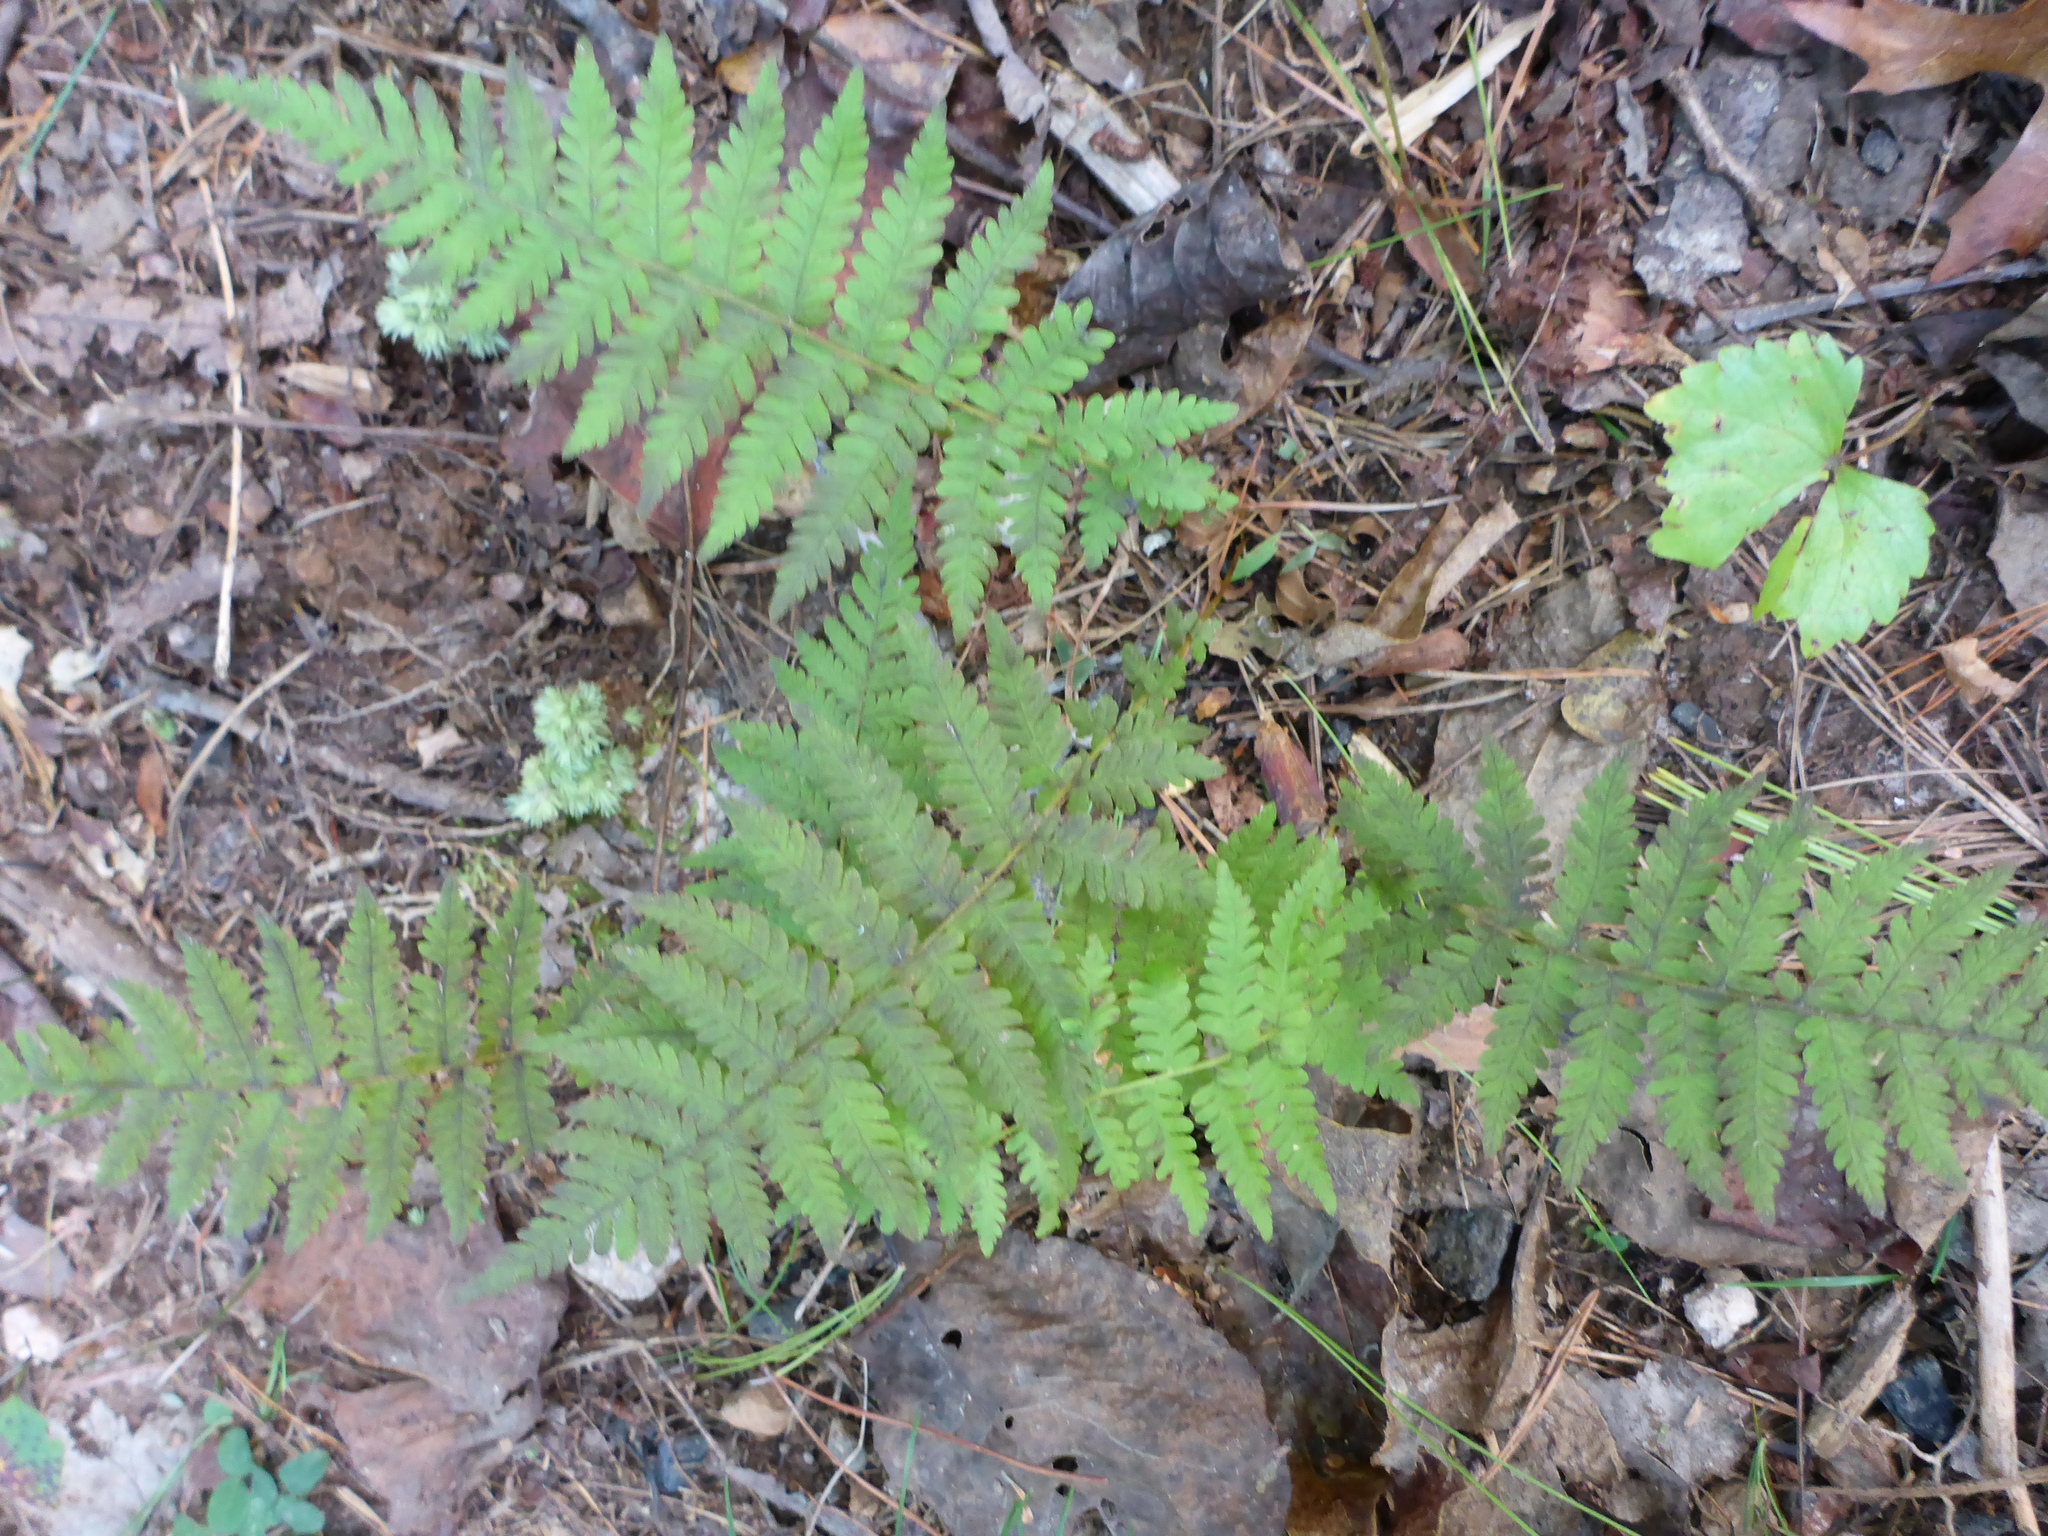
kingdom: Plantae
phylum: Tracheophyta
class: Polypodiopsida
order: Polypodiales
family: Thelypteridaceae
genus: Amauropelta
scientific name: Amauropelta noveboracensis
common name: New york fern
